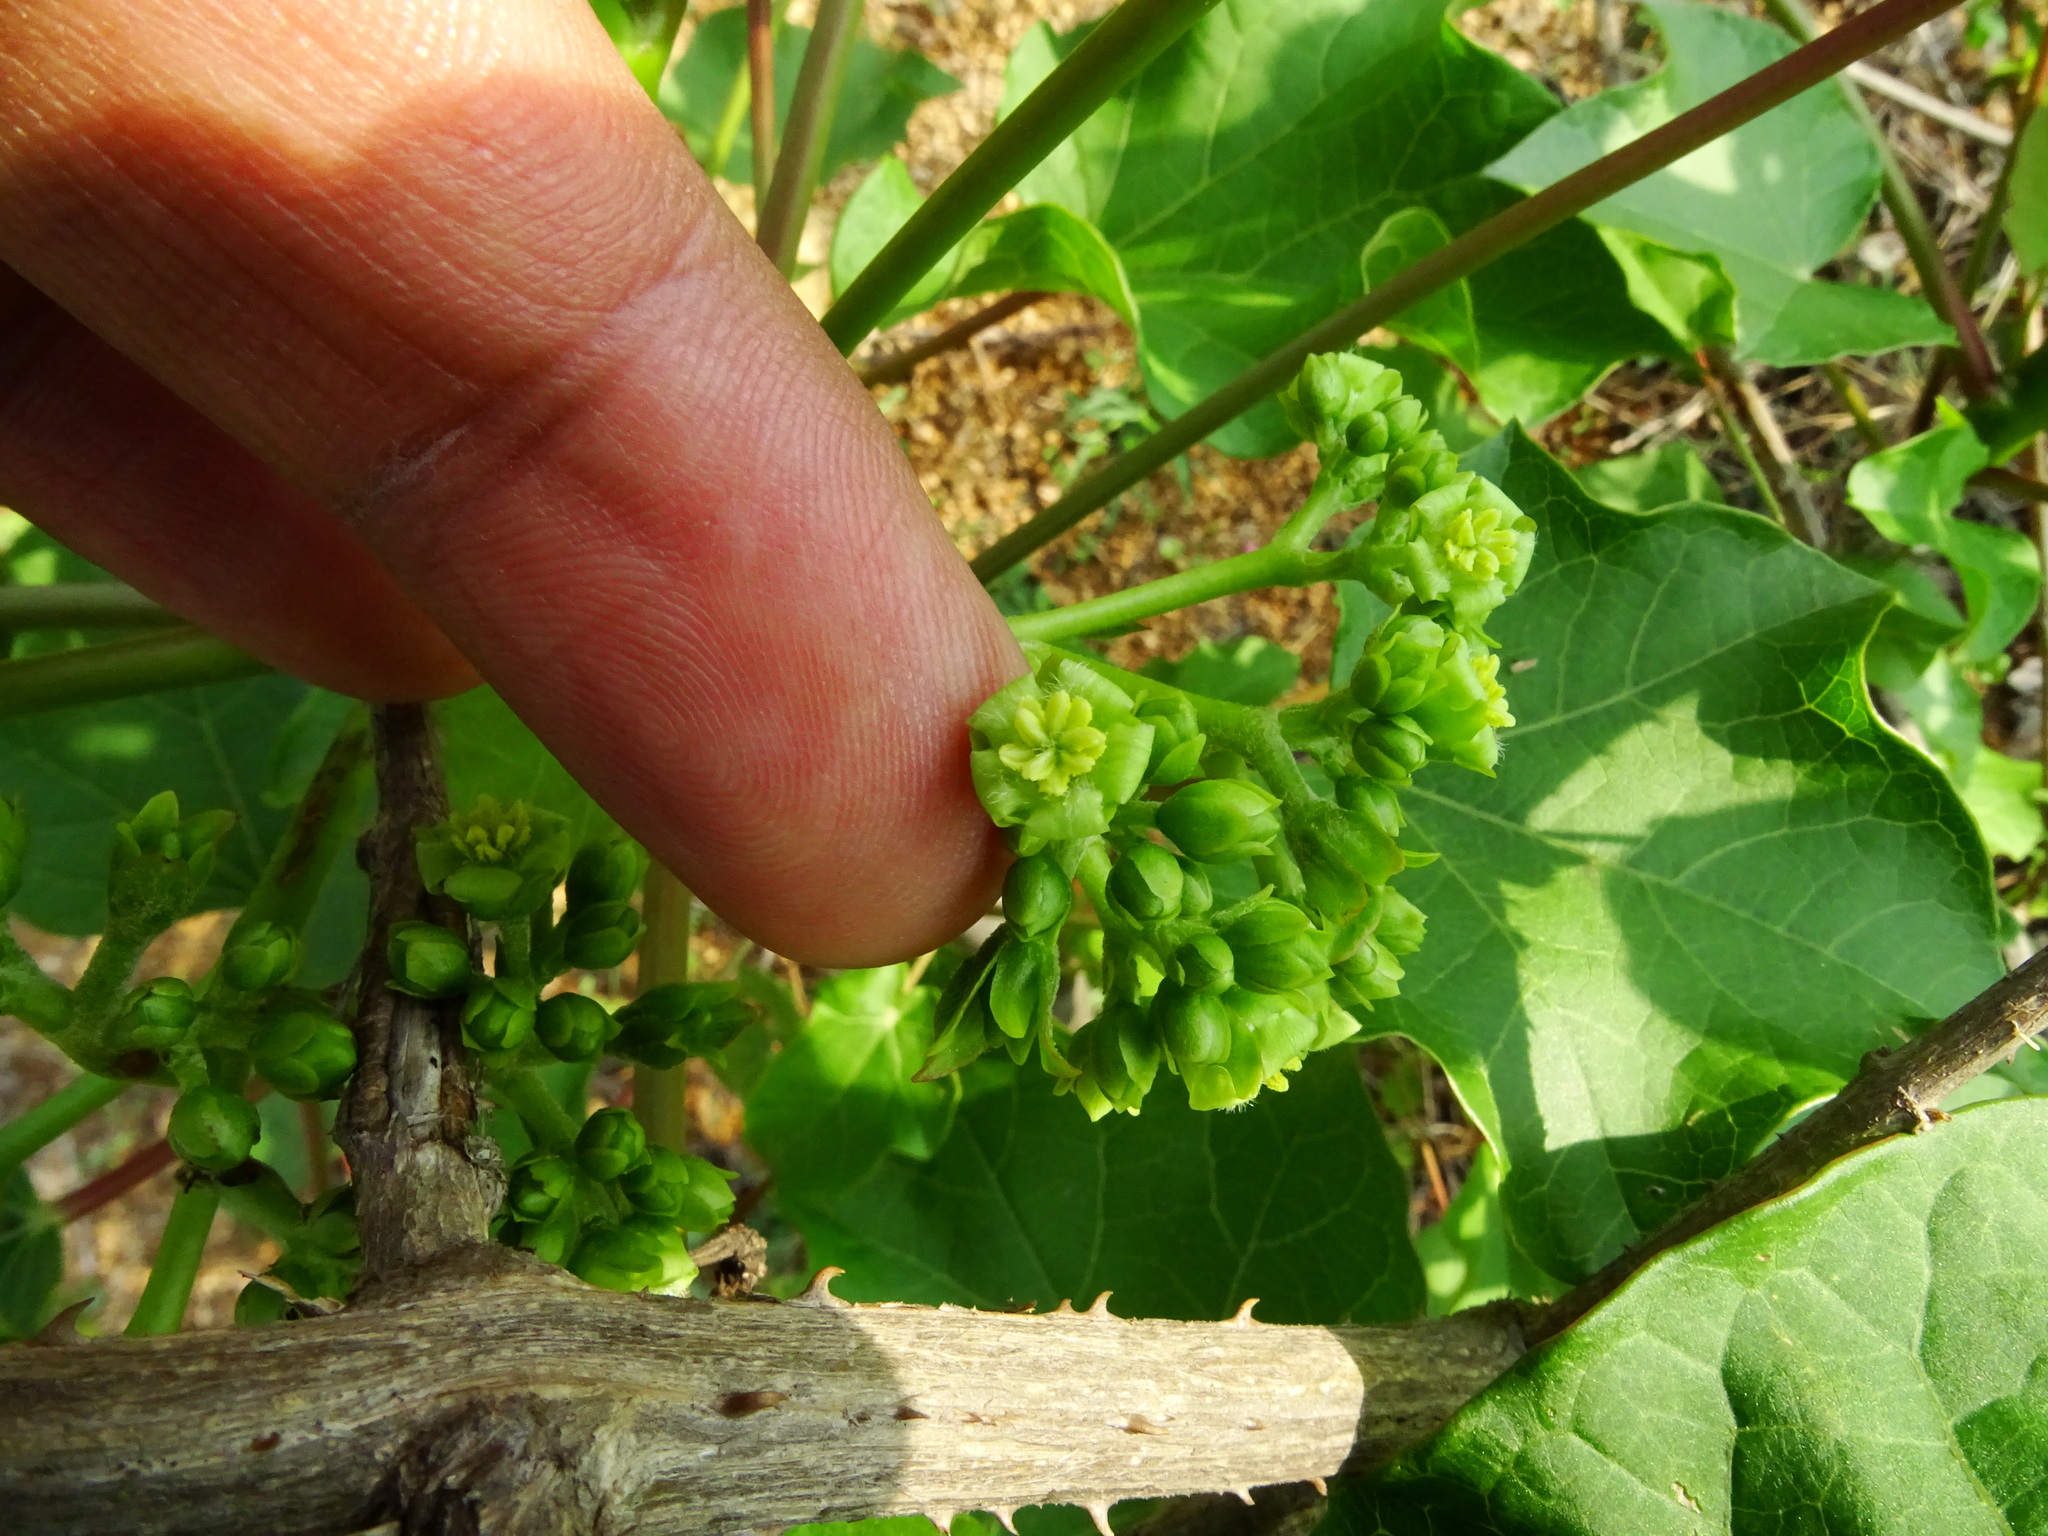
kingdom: Plantae
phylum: Tracheophyta
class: Magnoliopsida
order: Malpighiales
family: Euphorbiaceae
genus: Jatropha
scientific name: Jatropha curcas
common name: Barbados nut
